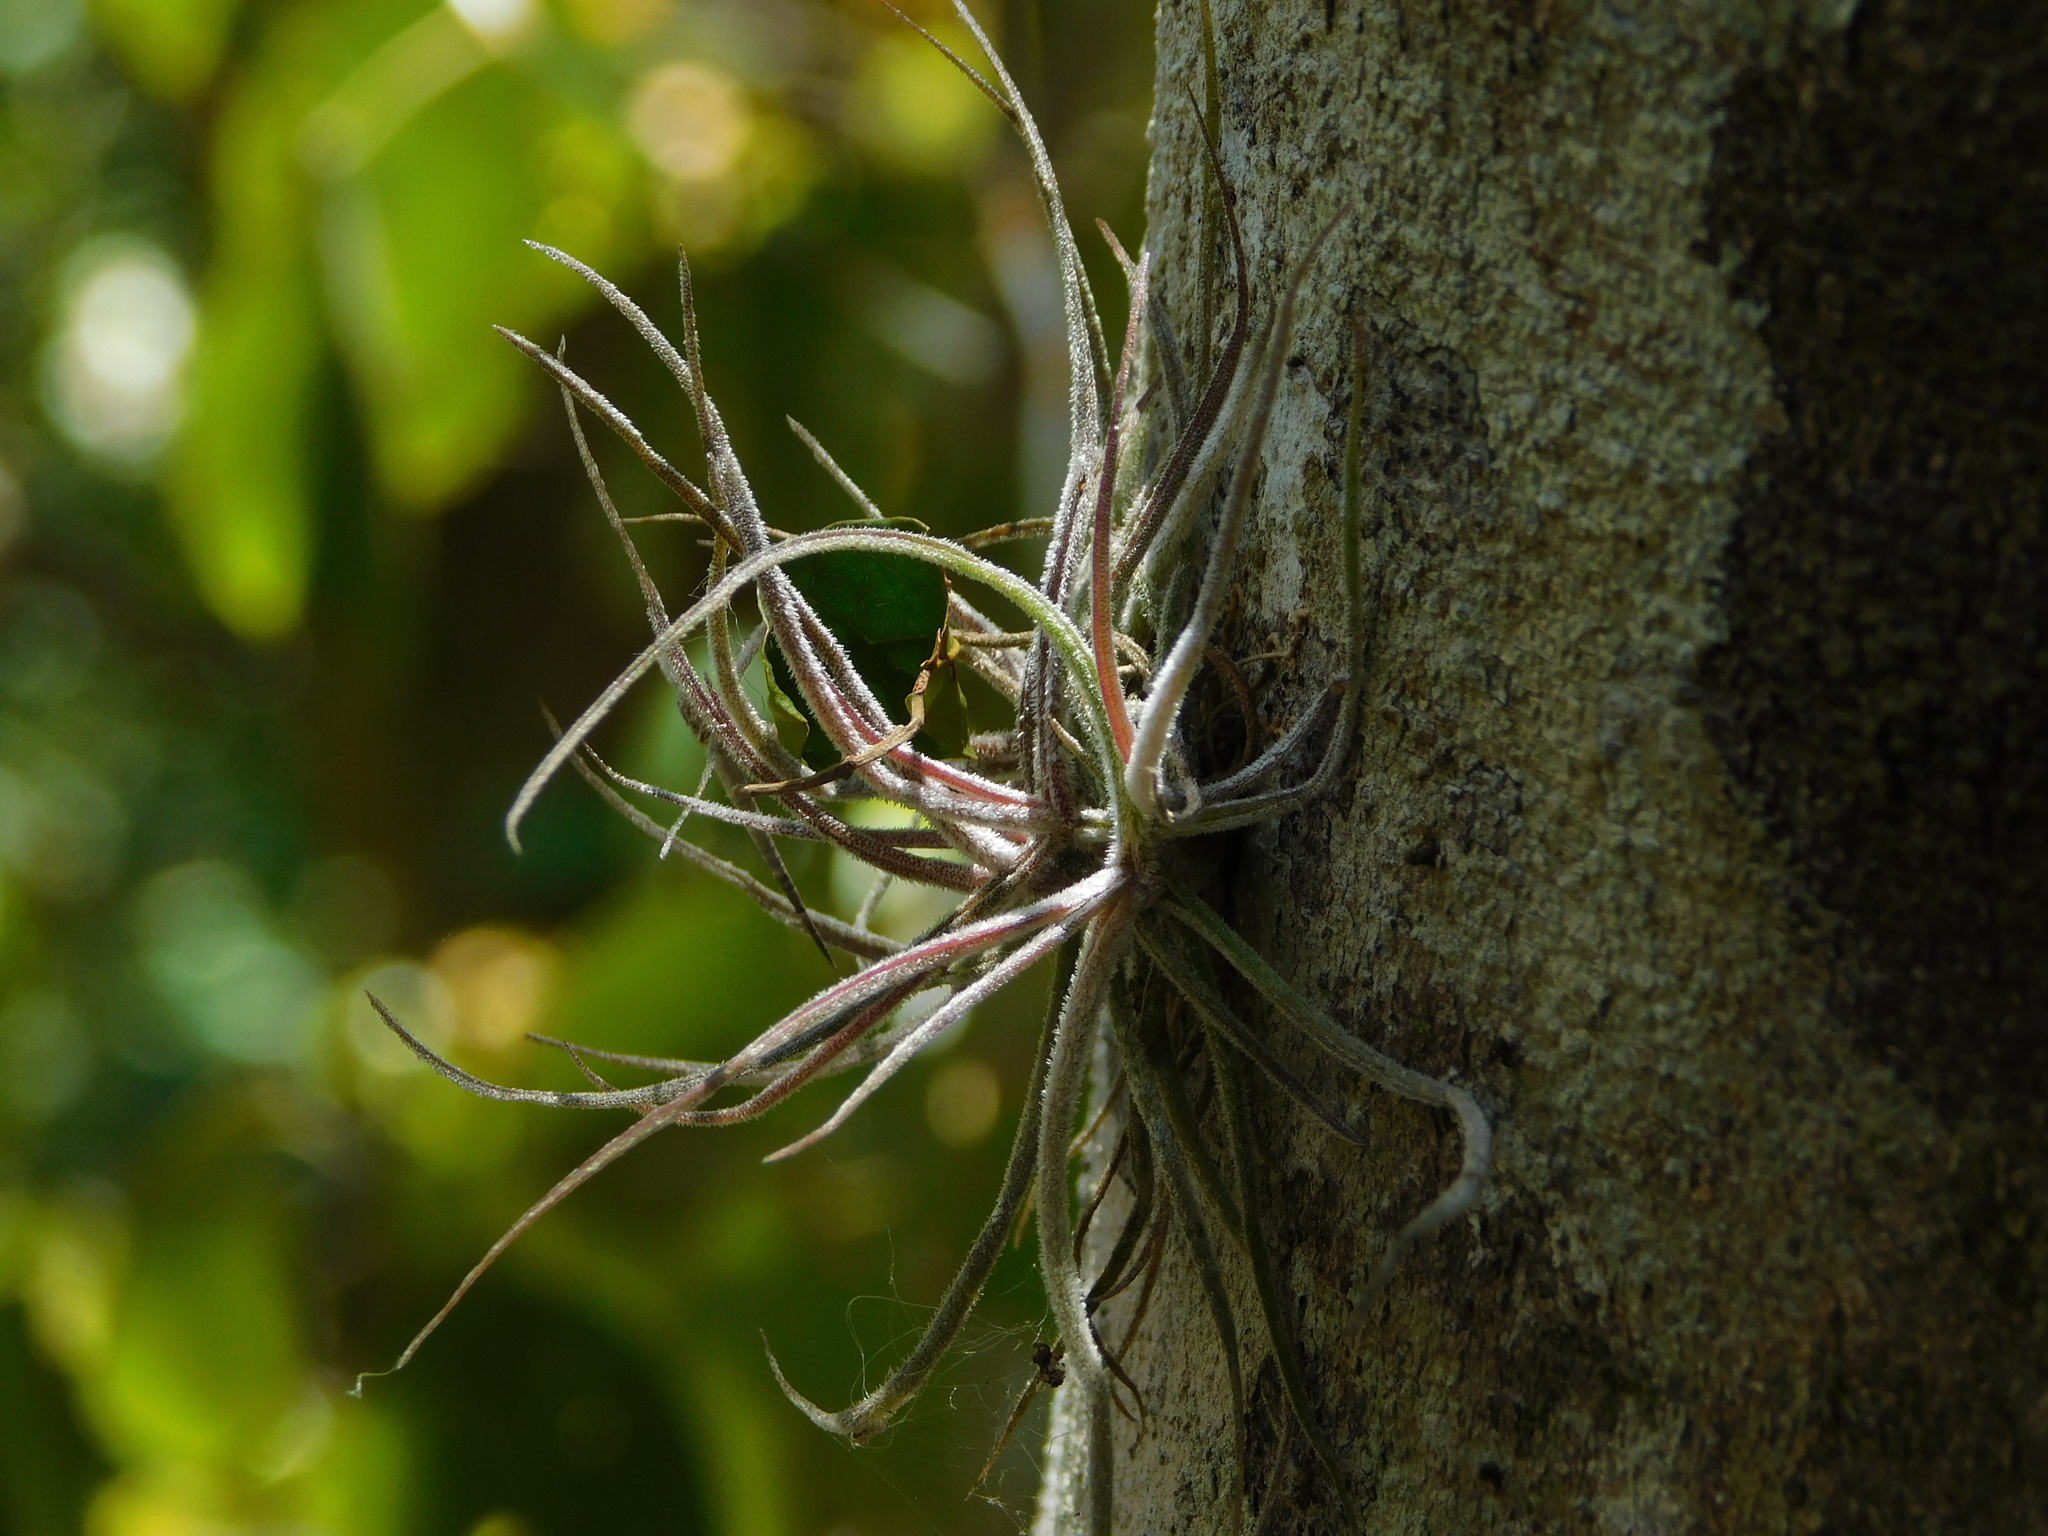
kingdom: Plantae
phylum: Tracheophyta
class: Liliopsida
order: Poales
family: Bromeliaceae
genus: Tillandsia
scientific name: Tillandsia schiedeana
